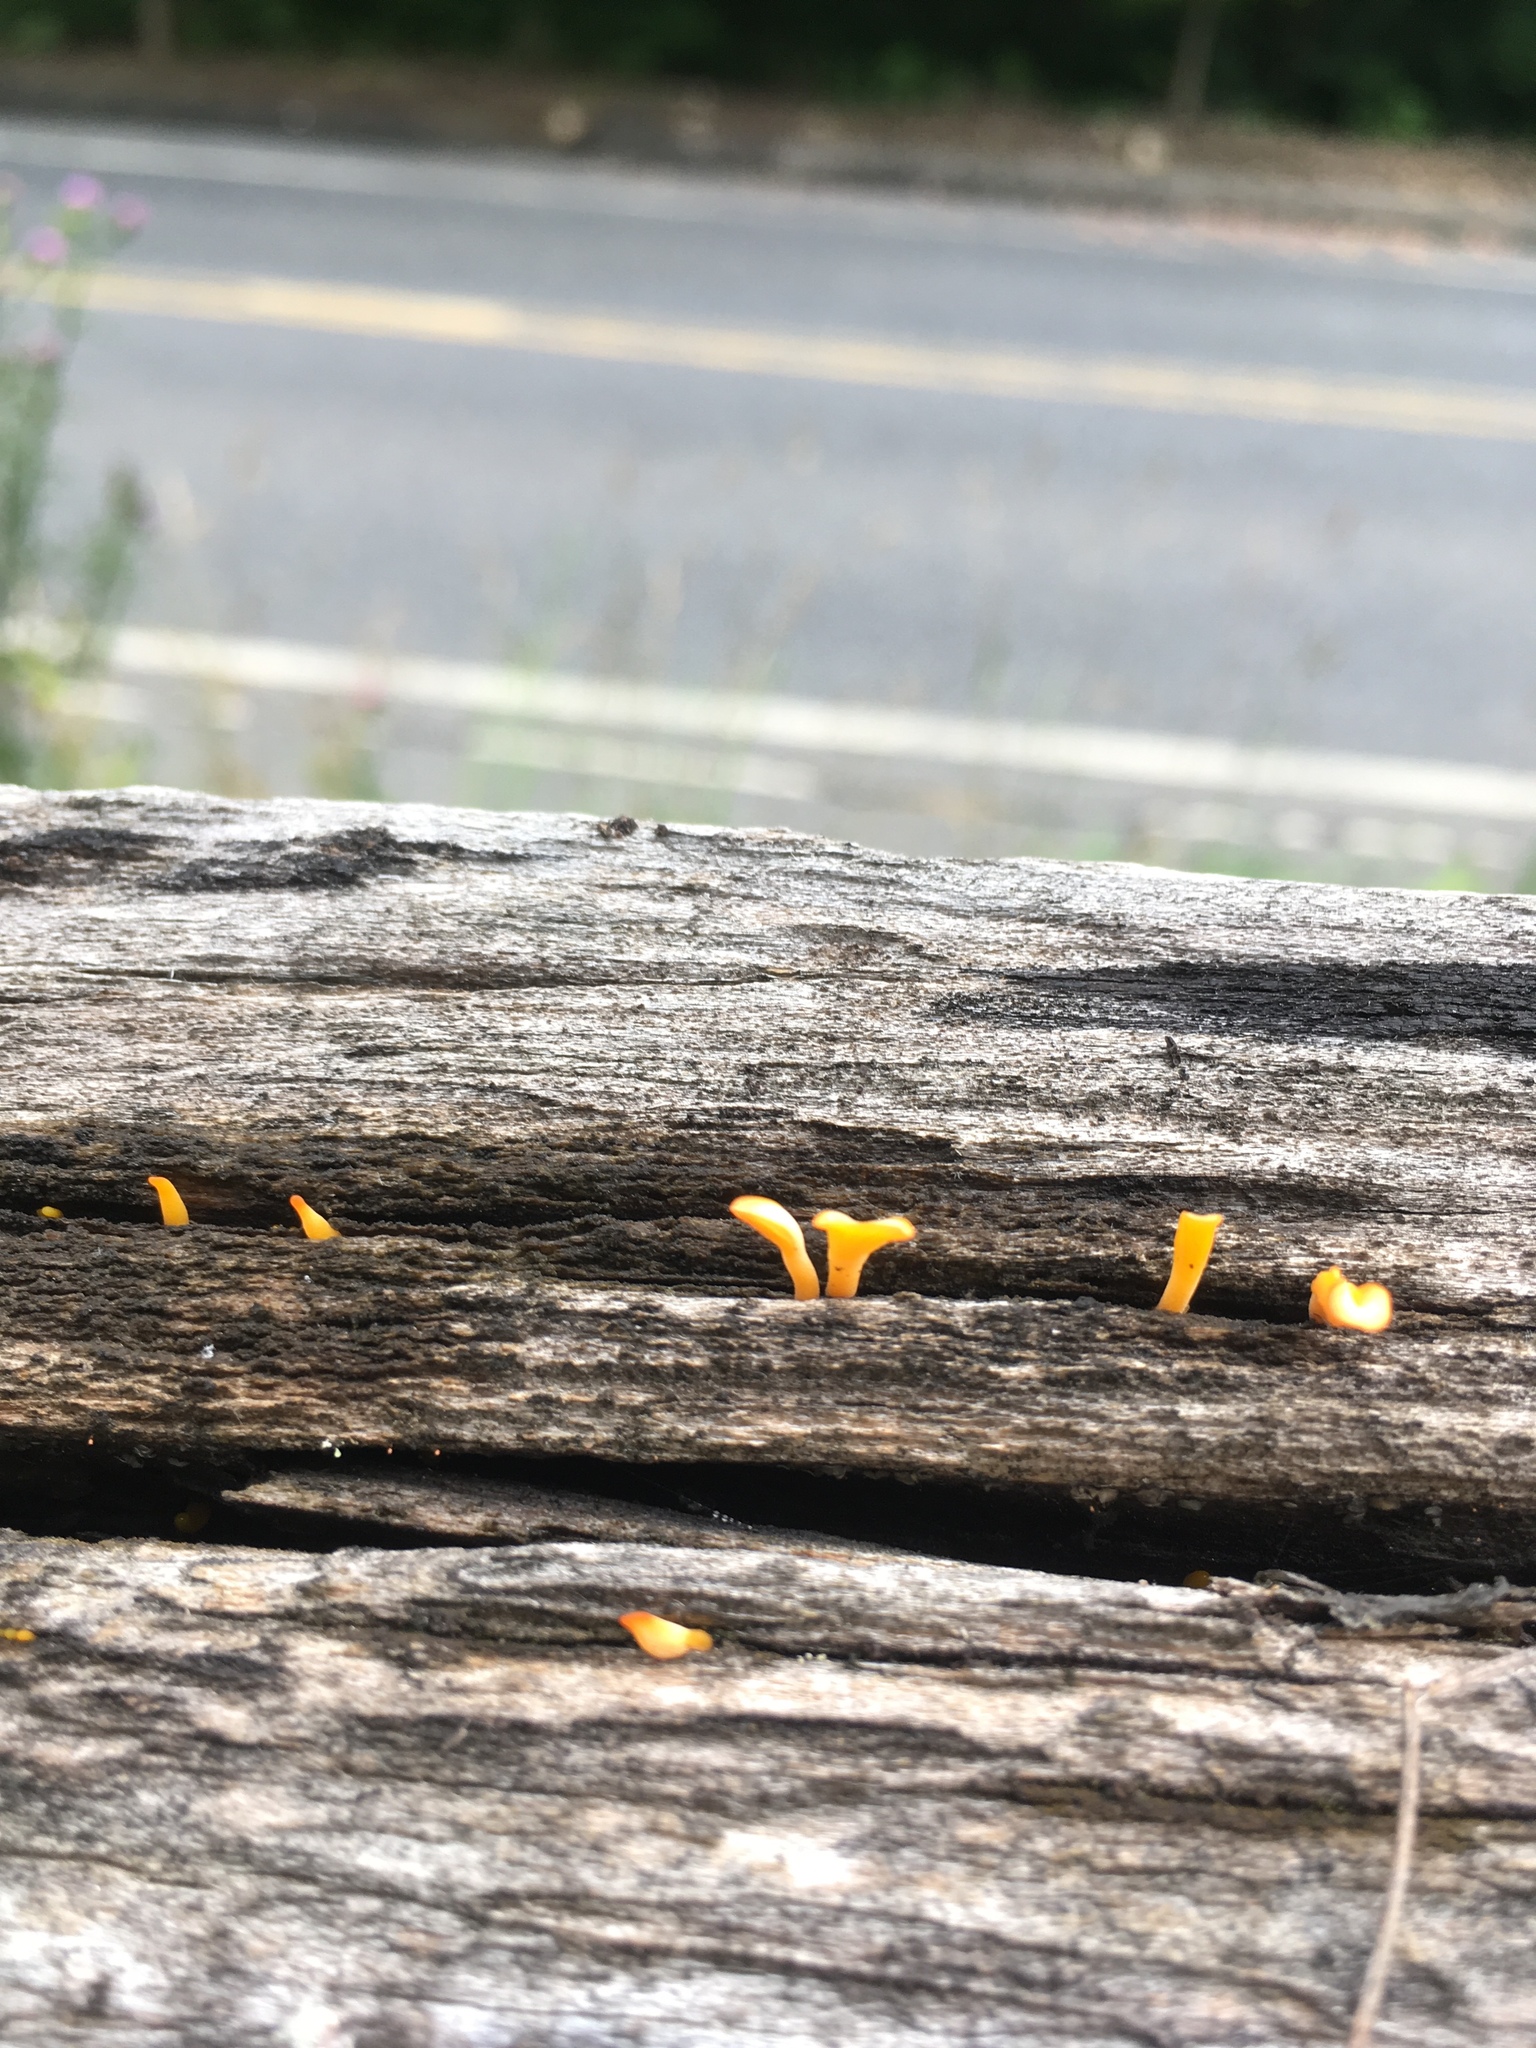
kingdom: Fungi
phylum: Basidiomycota
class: Dacrymycetes
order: Dacrymycetales
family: Dacrymycetaceae
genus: Dacrymyces
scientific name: Dacrymyces spathularius
